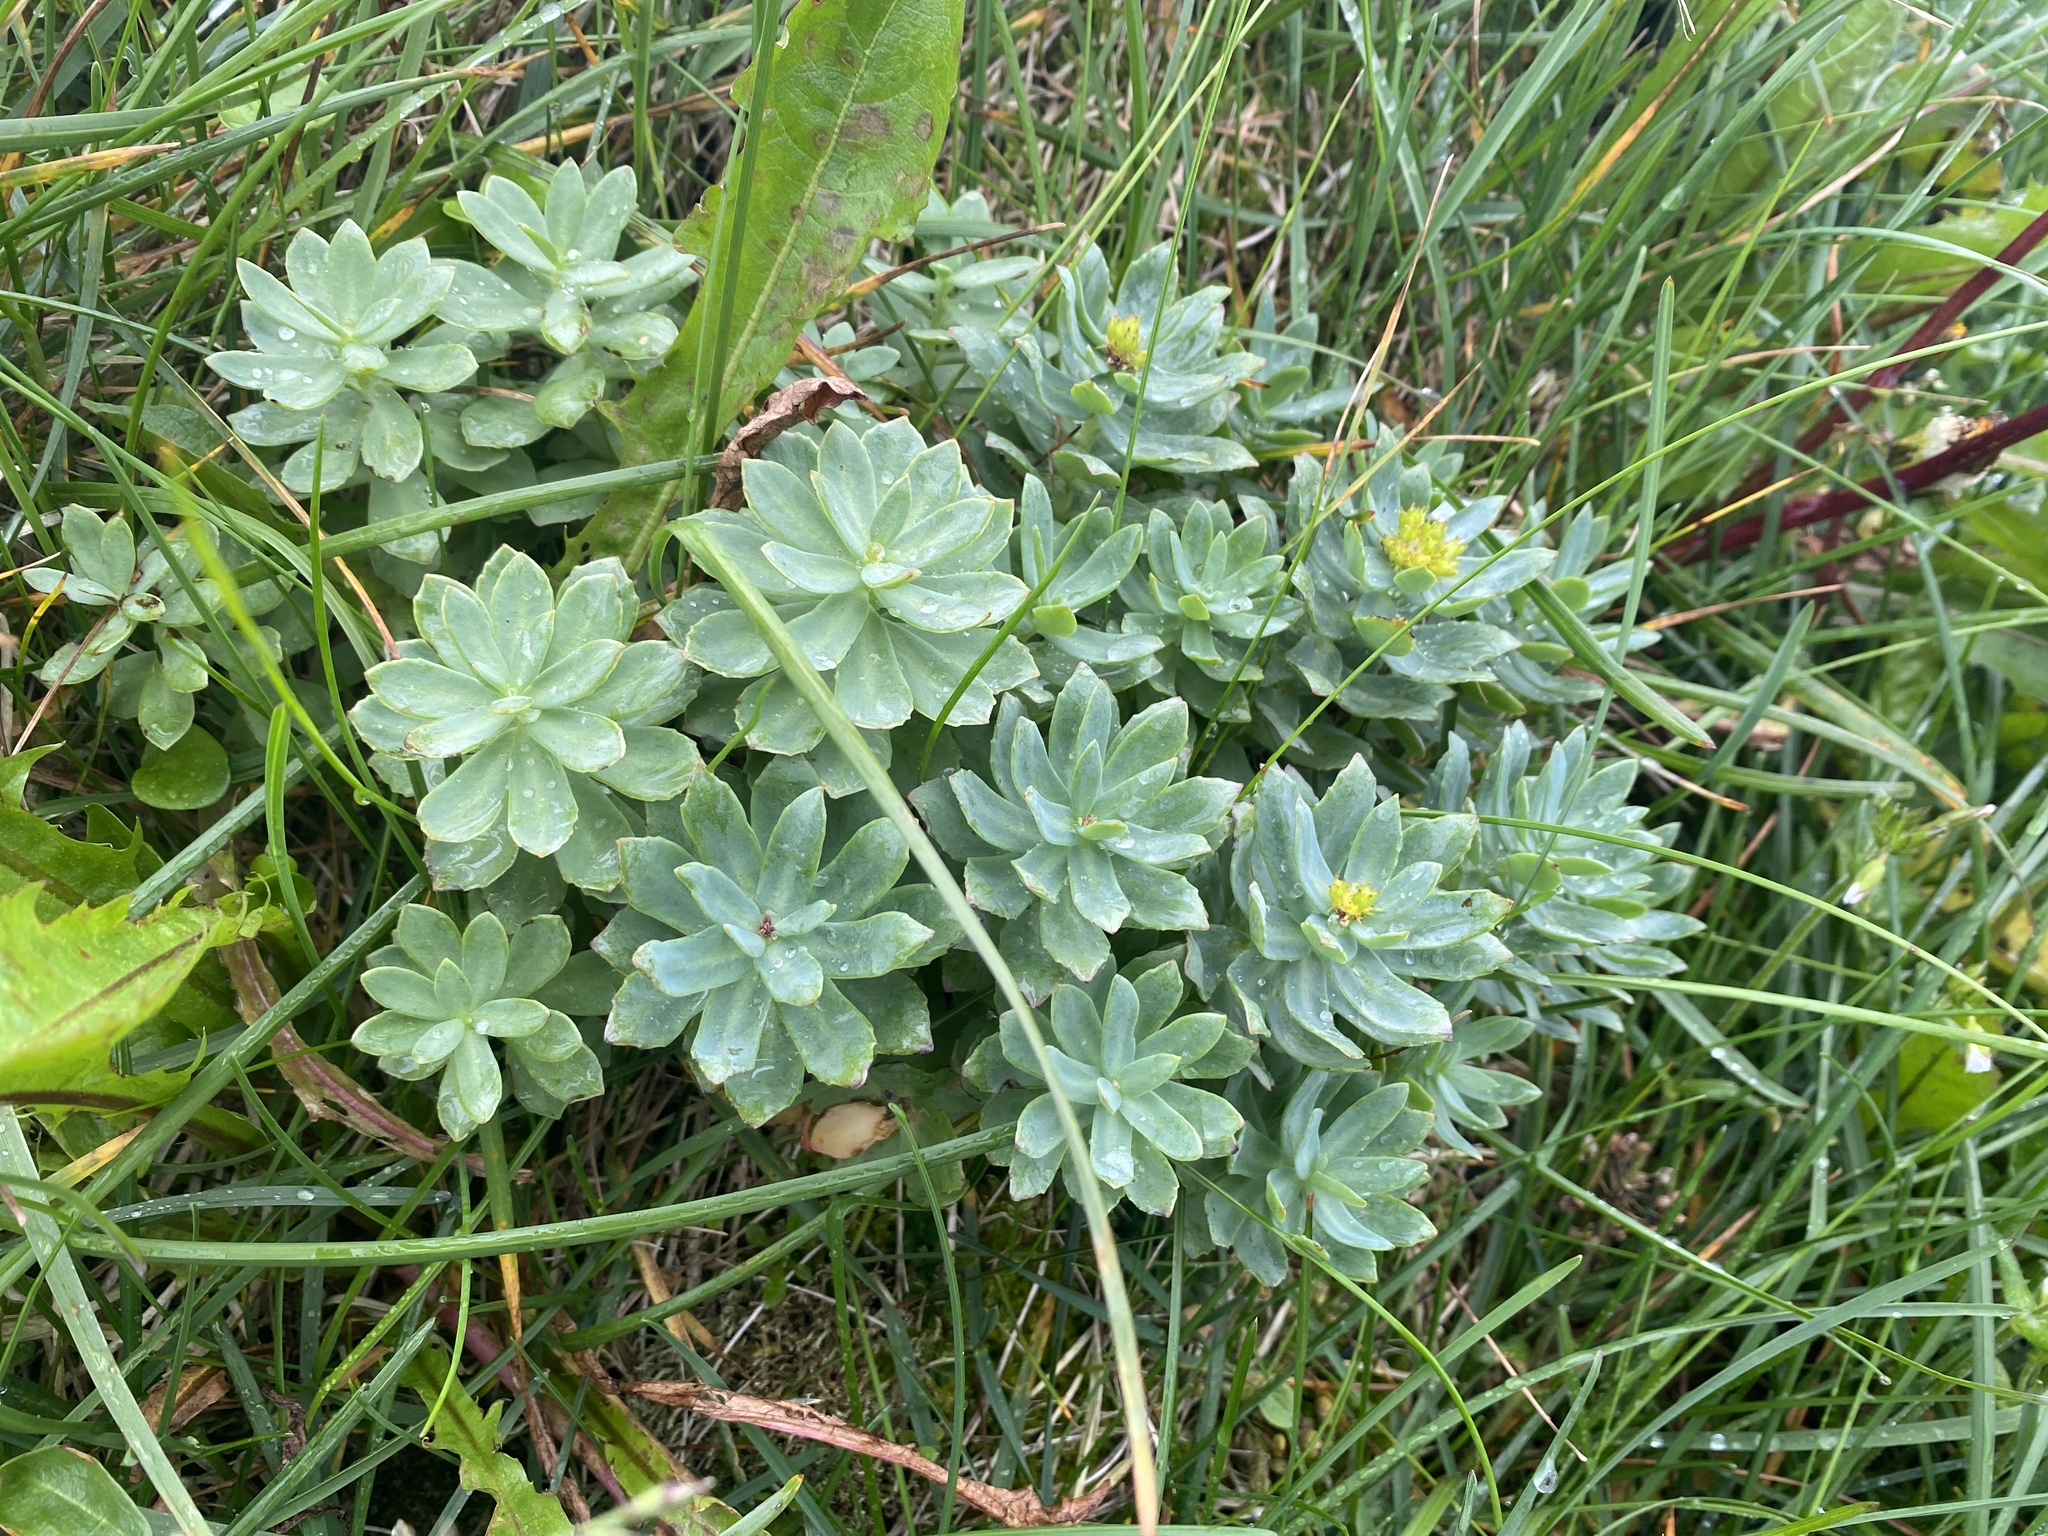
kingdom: Plantae
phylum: Tracheophyta
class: Magnoliopsida
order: Saxifragales
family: Crassulaceae
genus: Rhodiola
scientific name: Rhodiola rosea
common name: Roseroot
